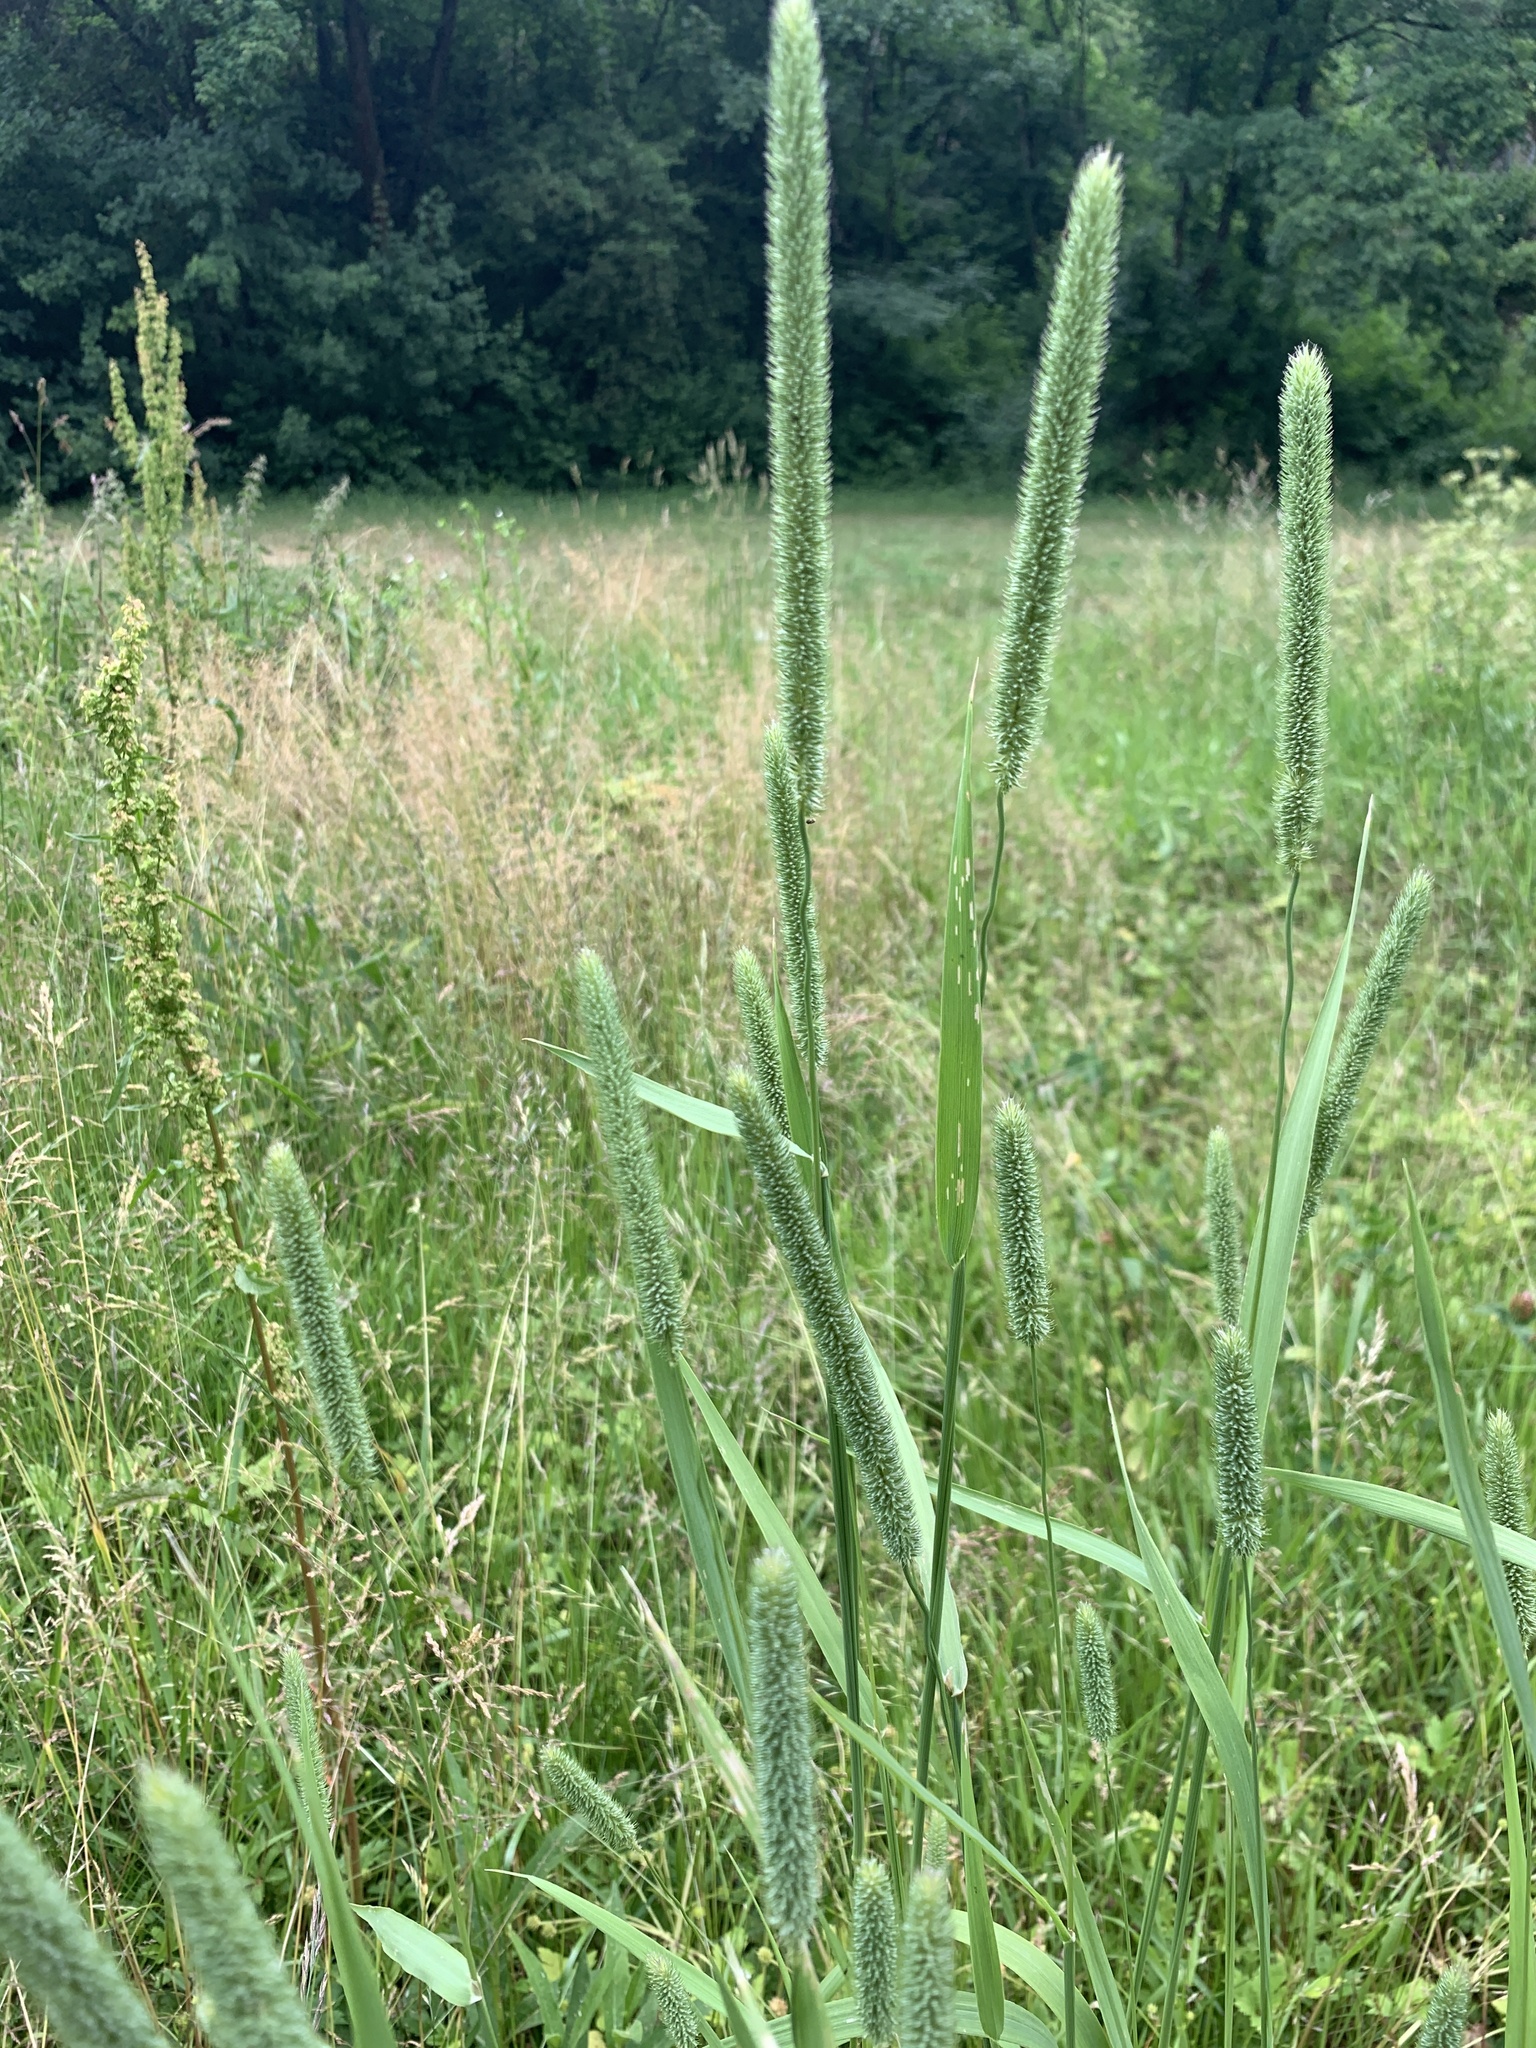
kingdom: Plantae
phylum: Tracheophyta
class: Liliopsida
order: Poales
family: Poaceae
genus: Phleum
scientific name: Phleum pratense
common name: Timothy grass
